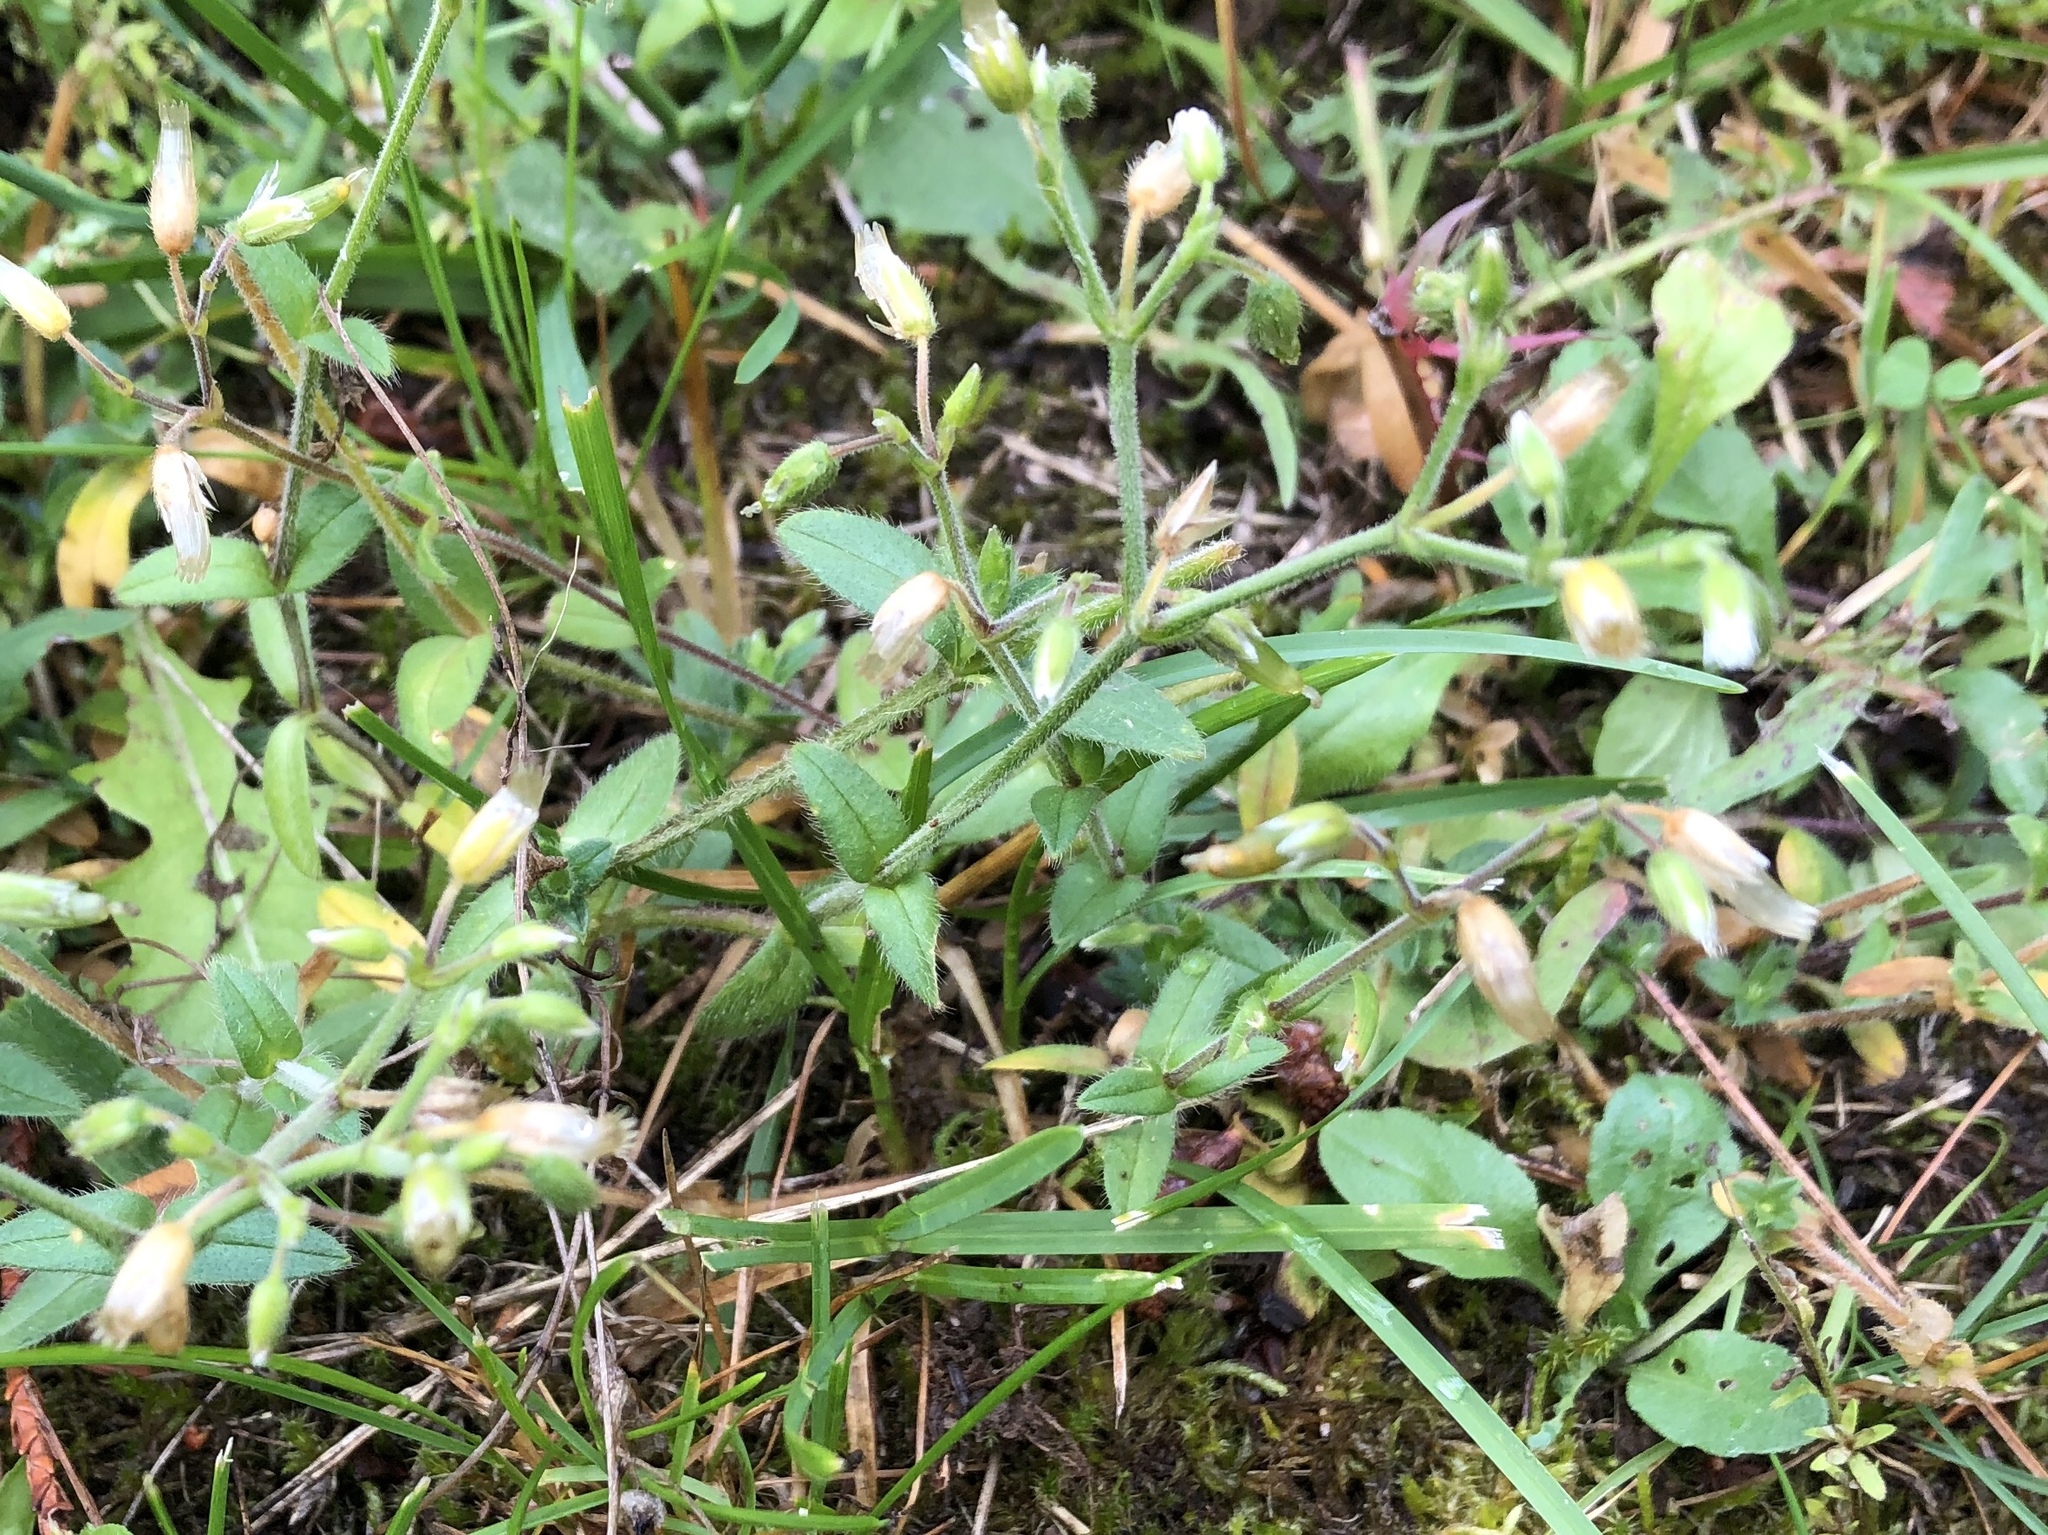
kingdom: Plantae
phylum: Tracheophyta
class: Magnoliopsida
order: Caryophyllales
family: Caryophyllaceae
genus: Cerastium
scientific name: Cerastium holosteoides
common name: Big chickweed
